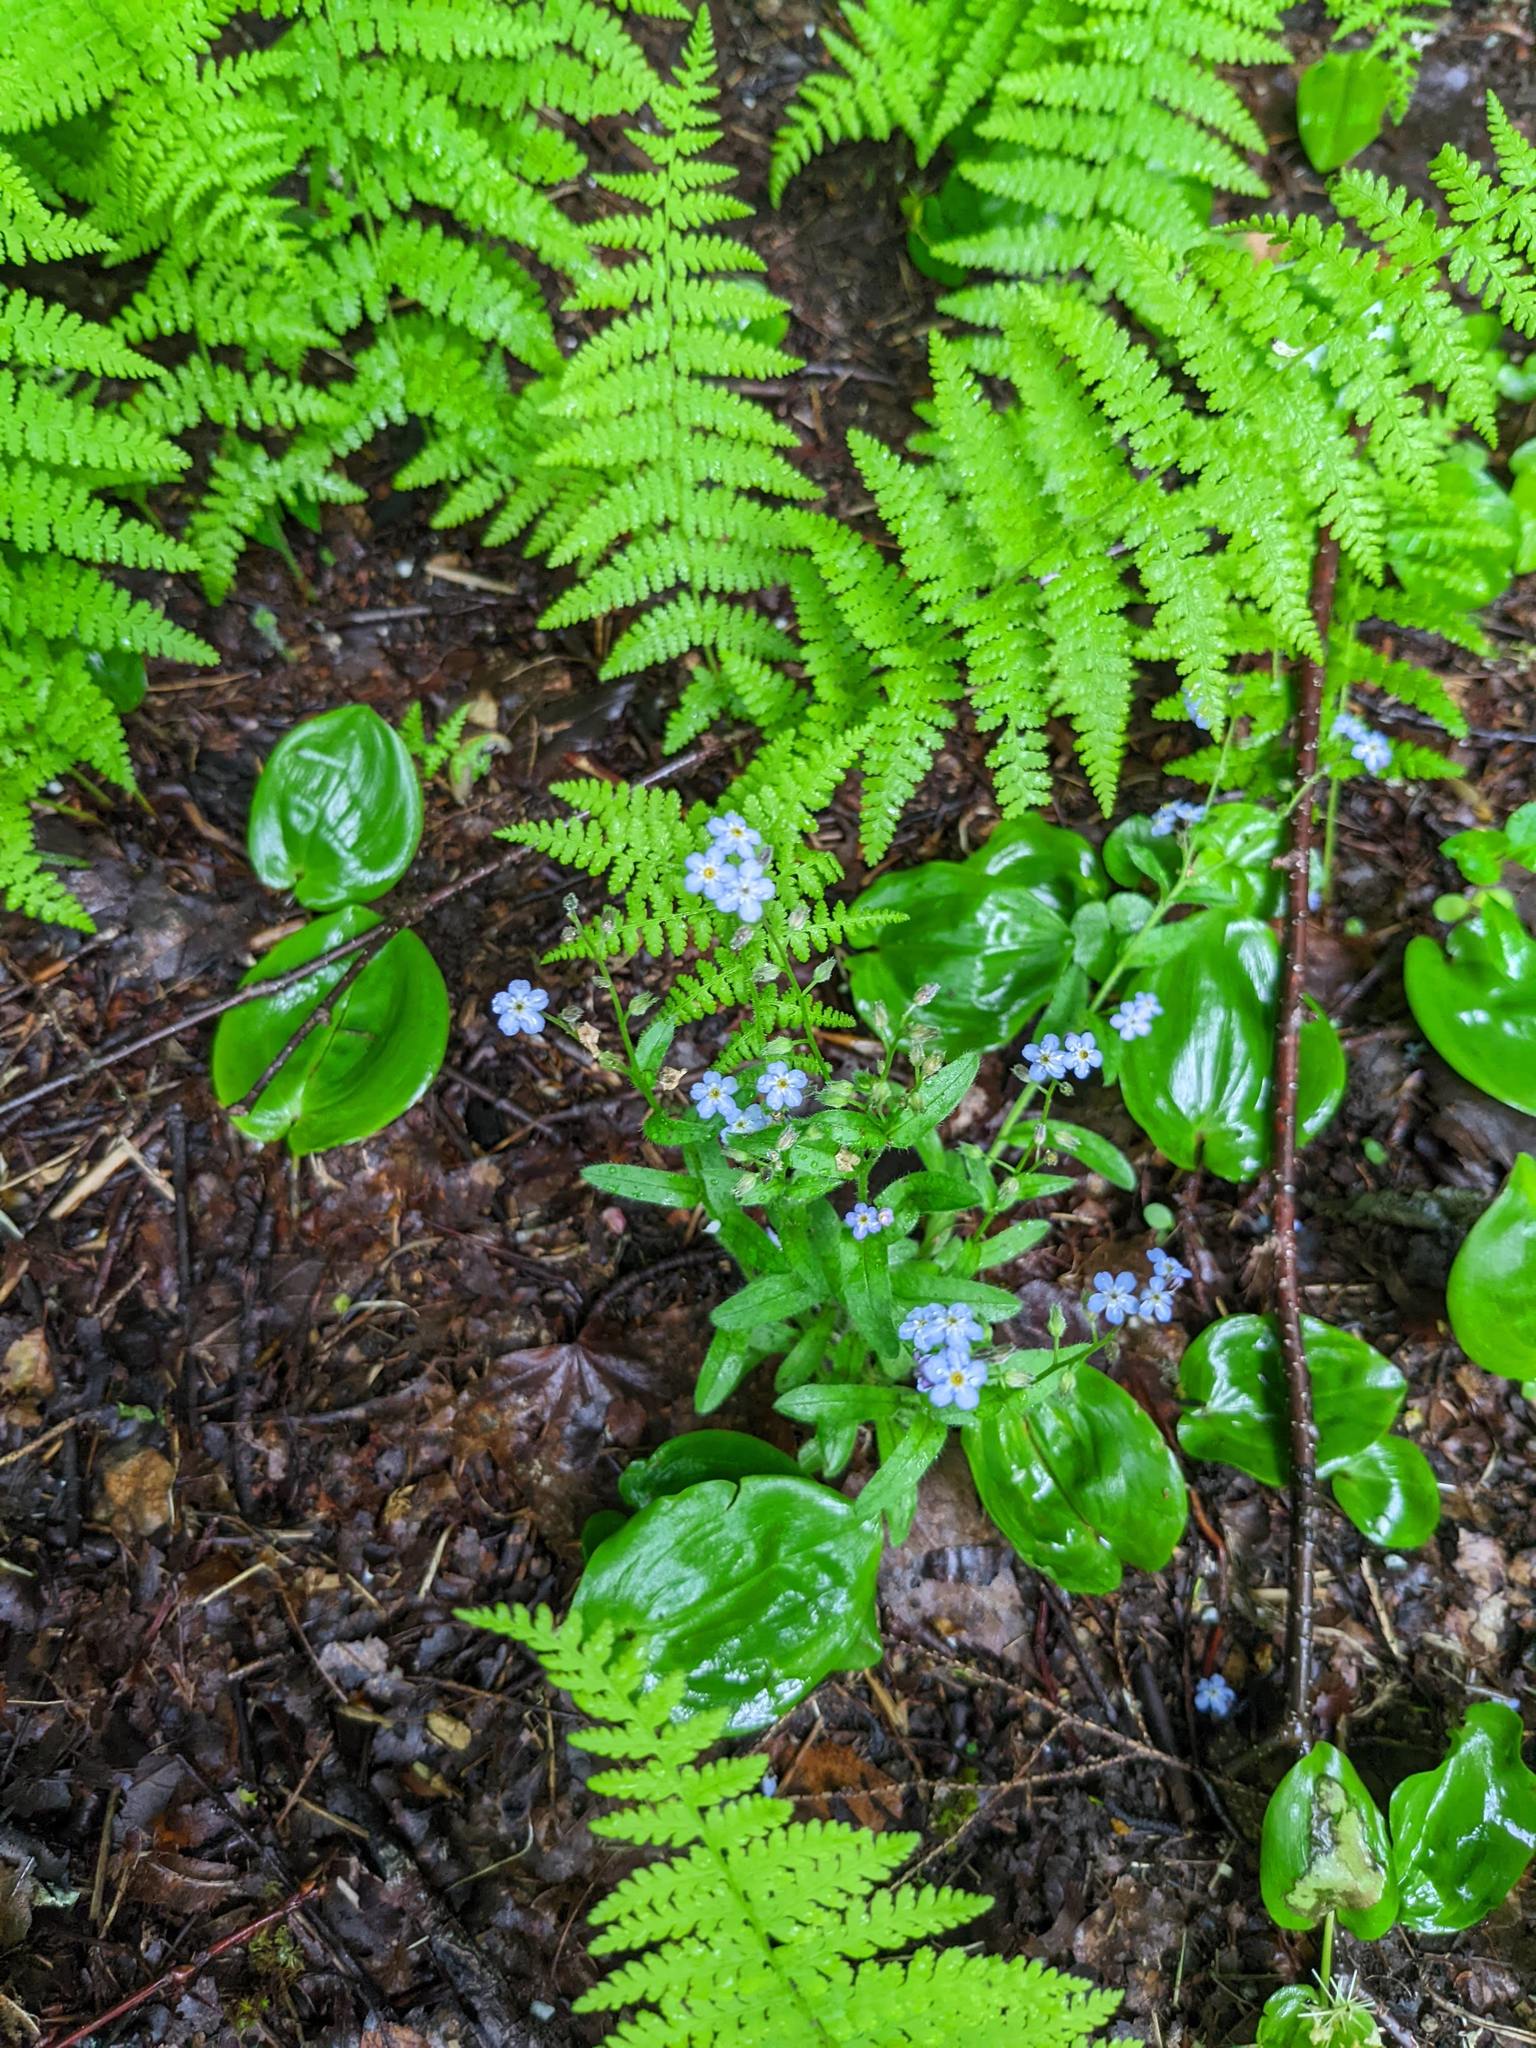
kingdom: Plantae
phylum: Tracheophyta
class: Liliopsida
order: Asparagales
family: Asparagaceae
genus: Maianthemum
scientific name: Maianthemum canadense
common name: False lily-of-the-valley
